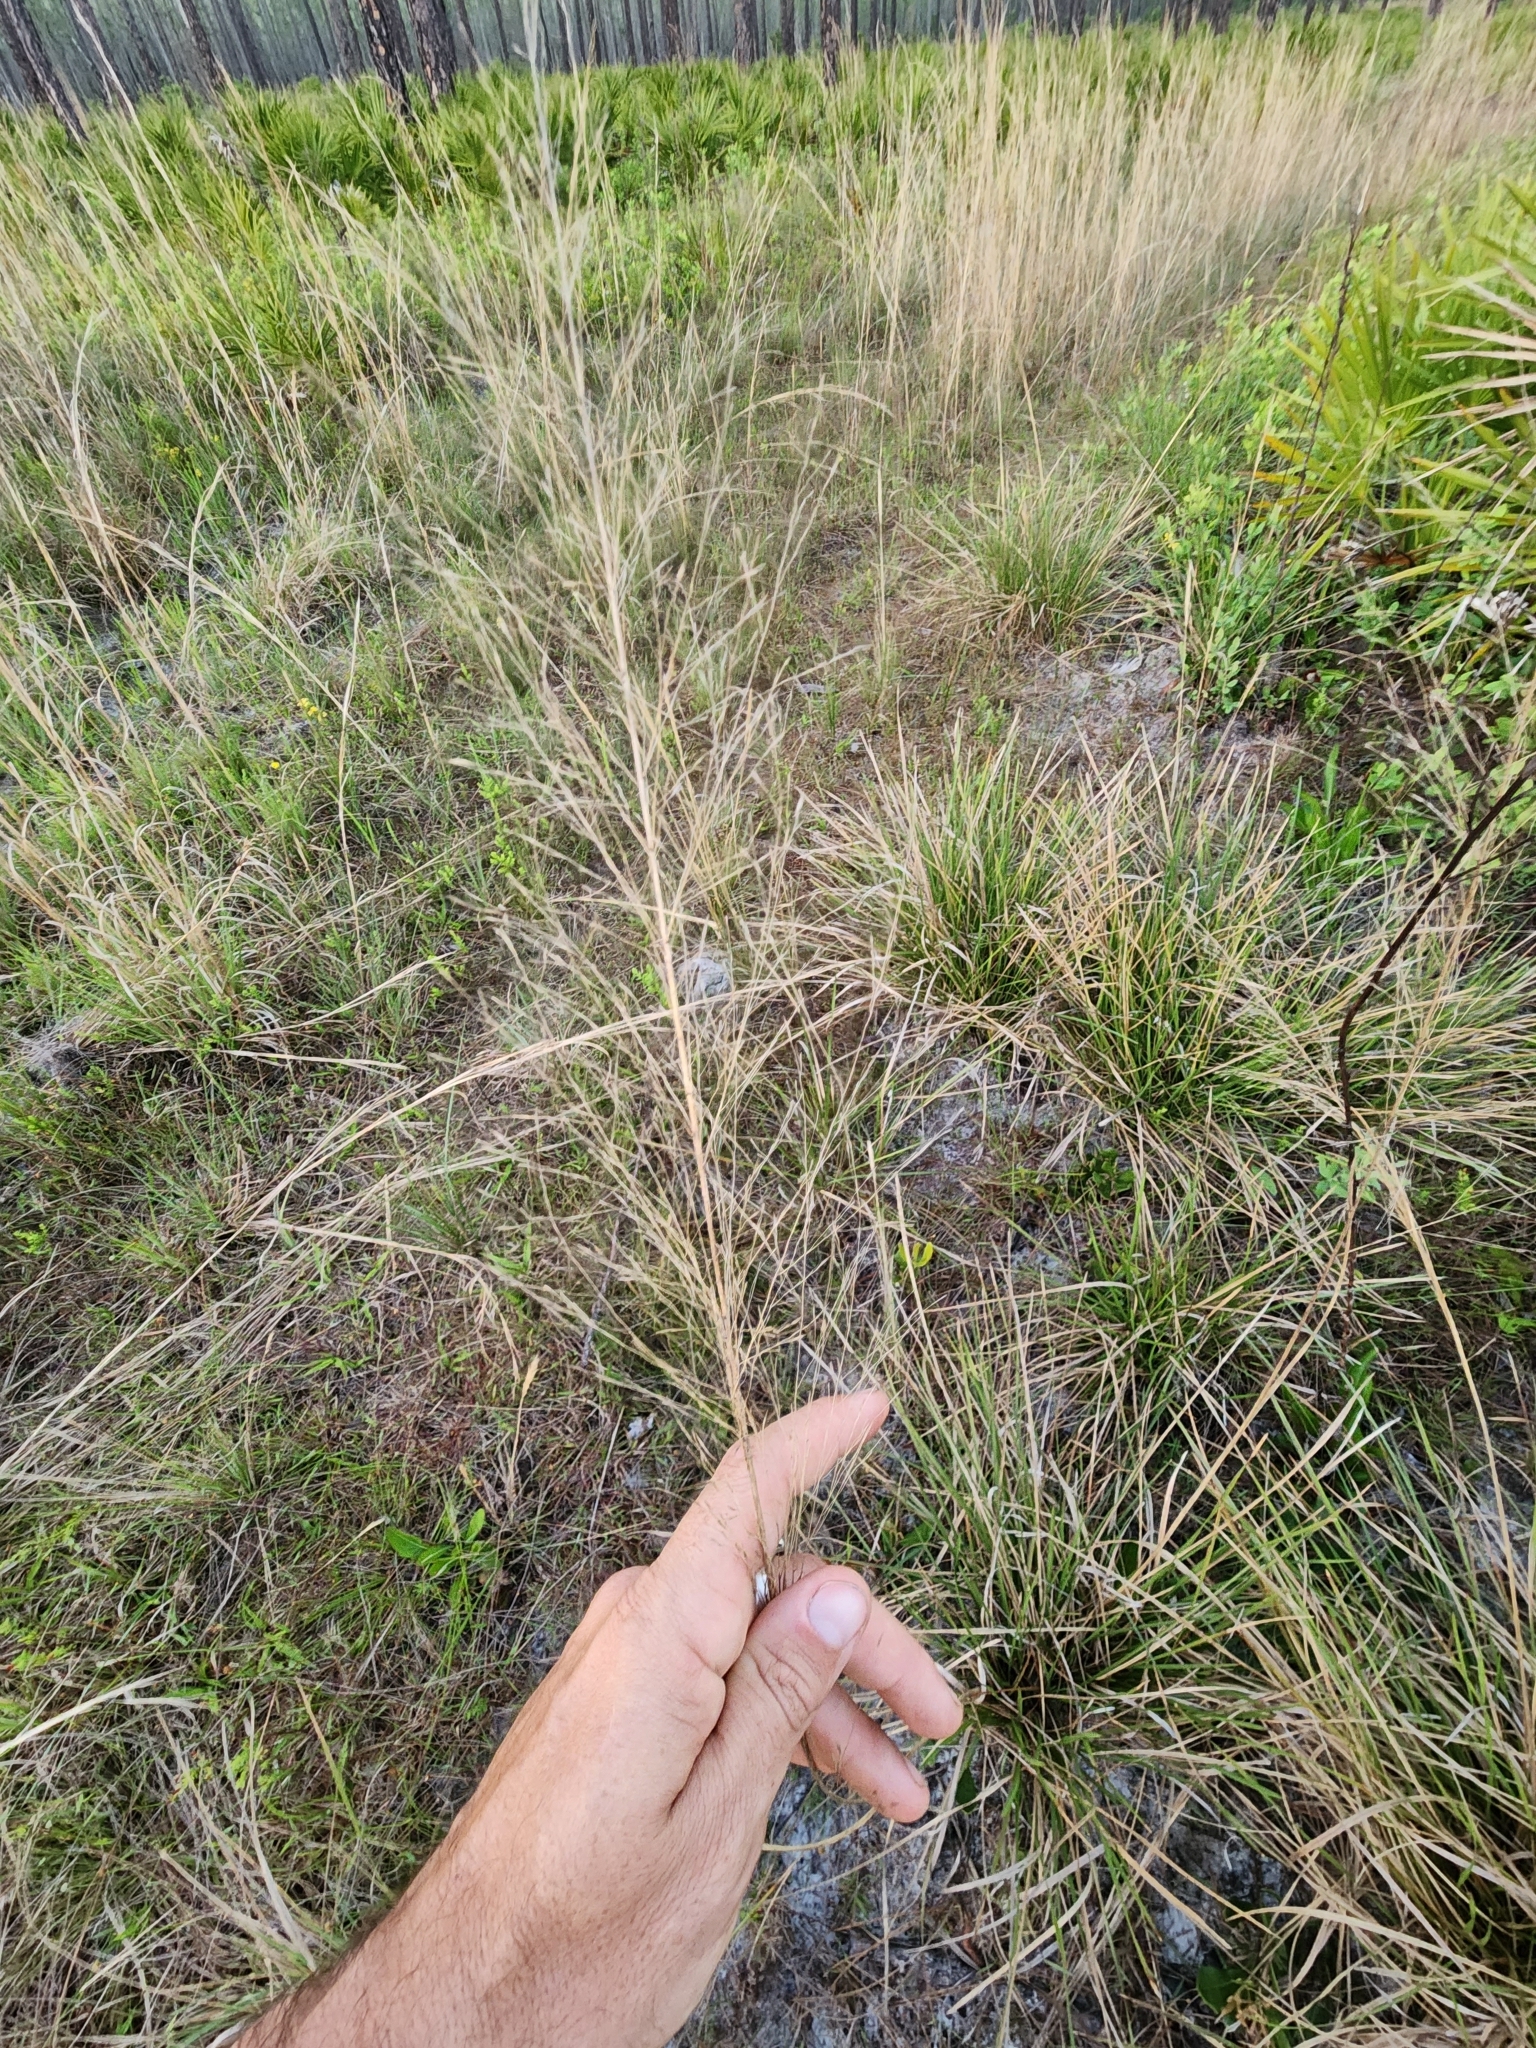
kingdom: Plantae
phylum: Tracheophyta
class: Liliopsida
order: Poales
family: Poaceae
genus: Sporobolus
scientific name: Sporobolus floridanus
